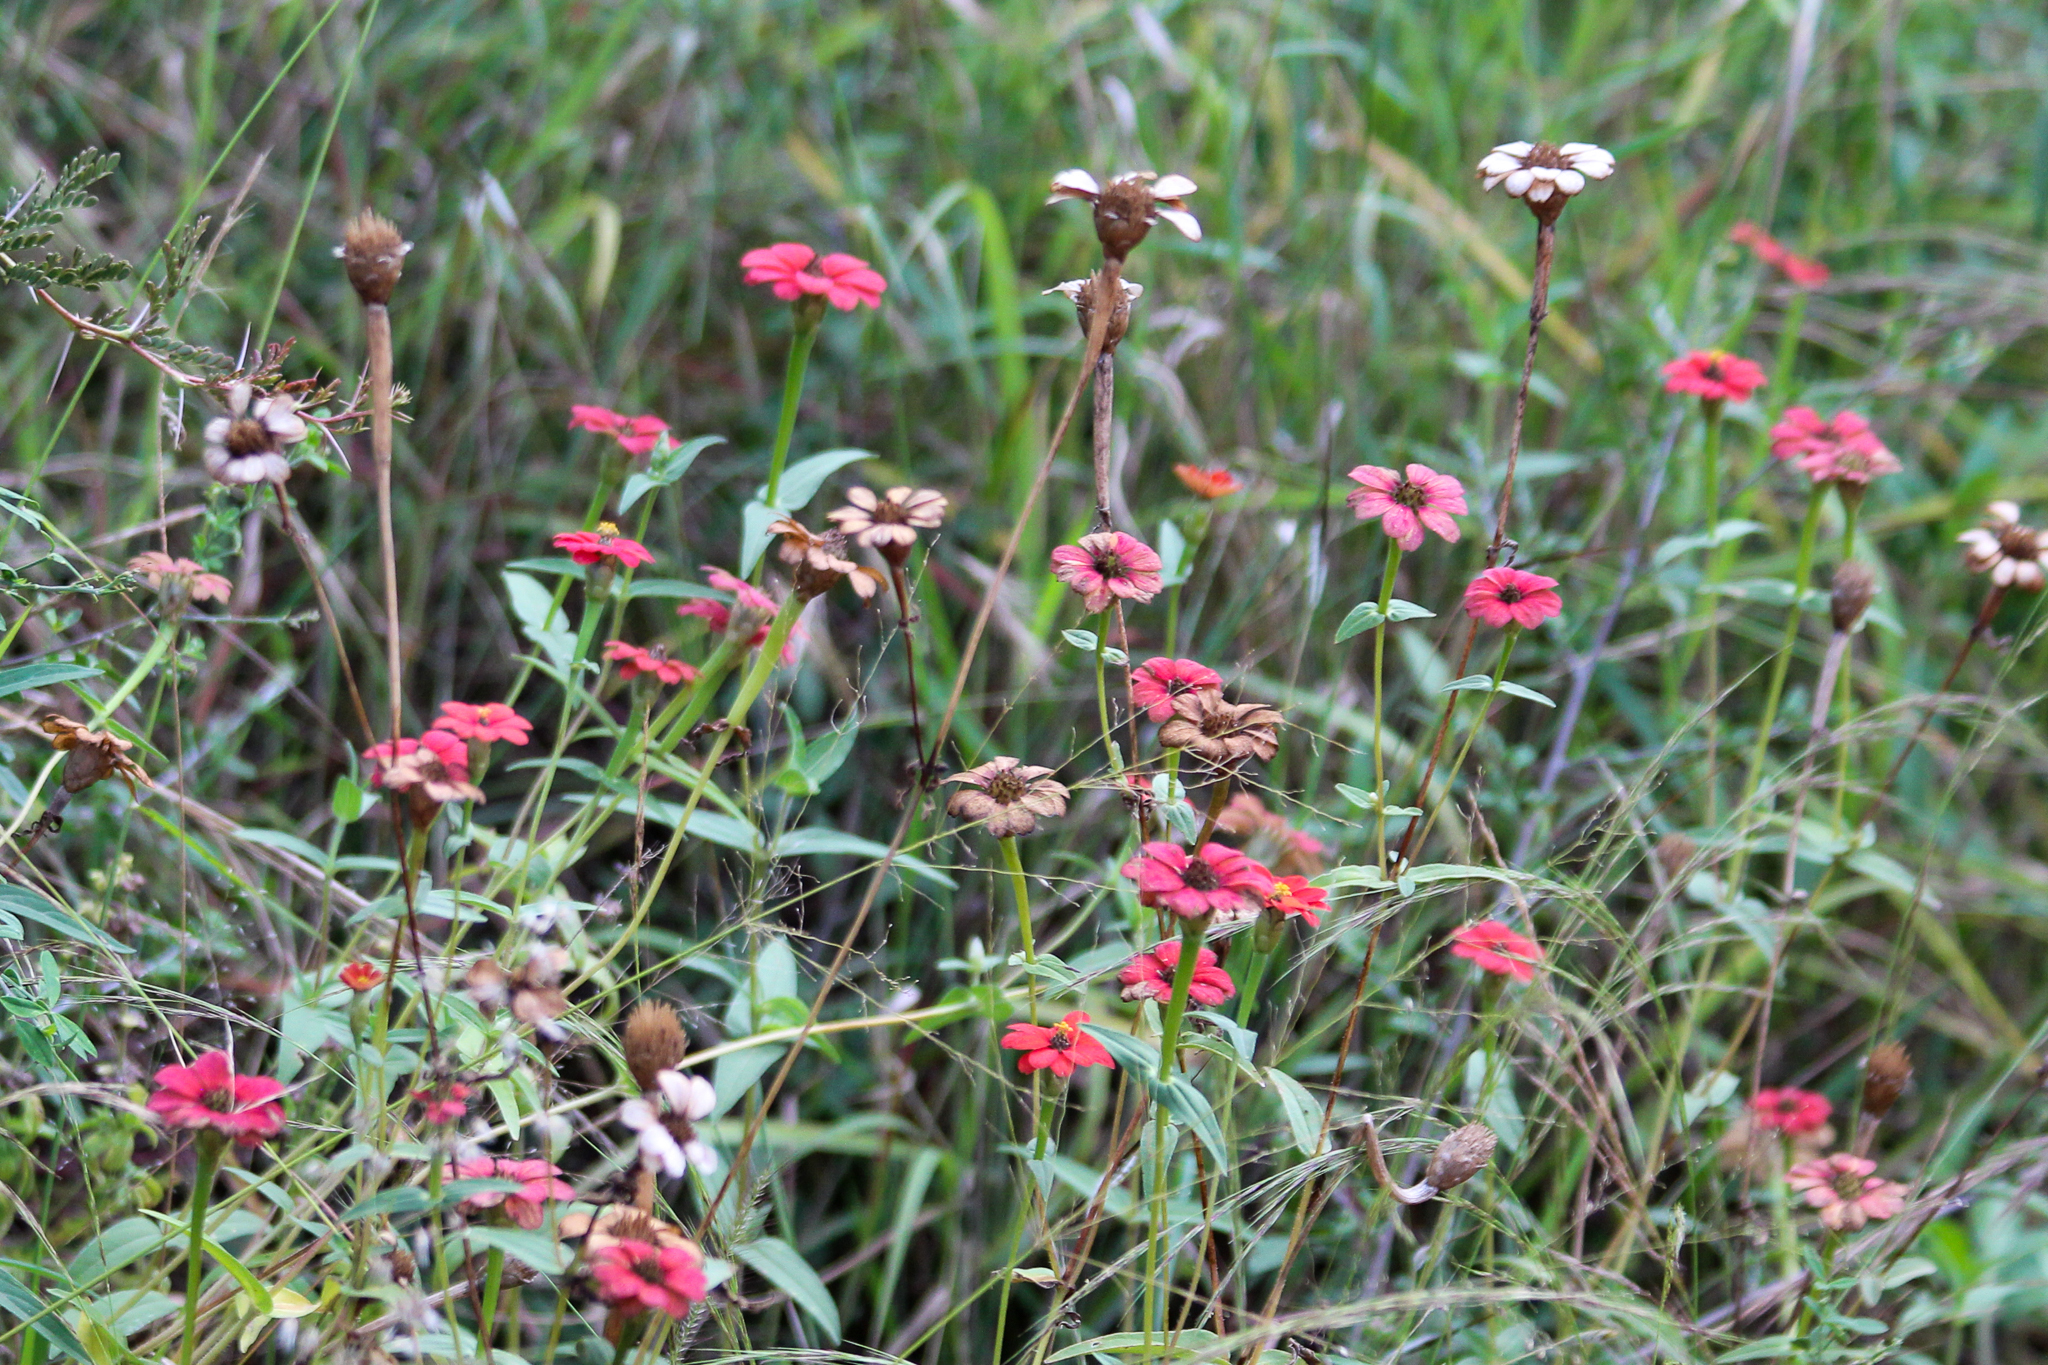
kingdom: Plantae
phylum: Tracheophyta
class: Magnoliopsida
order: Asterales
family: Asteraceae
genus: Zinnia
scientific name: Zinnia peruviana
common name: Peruvian zinnia
